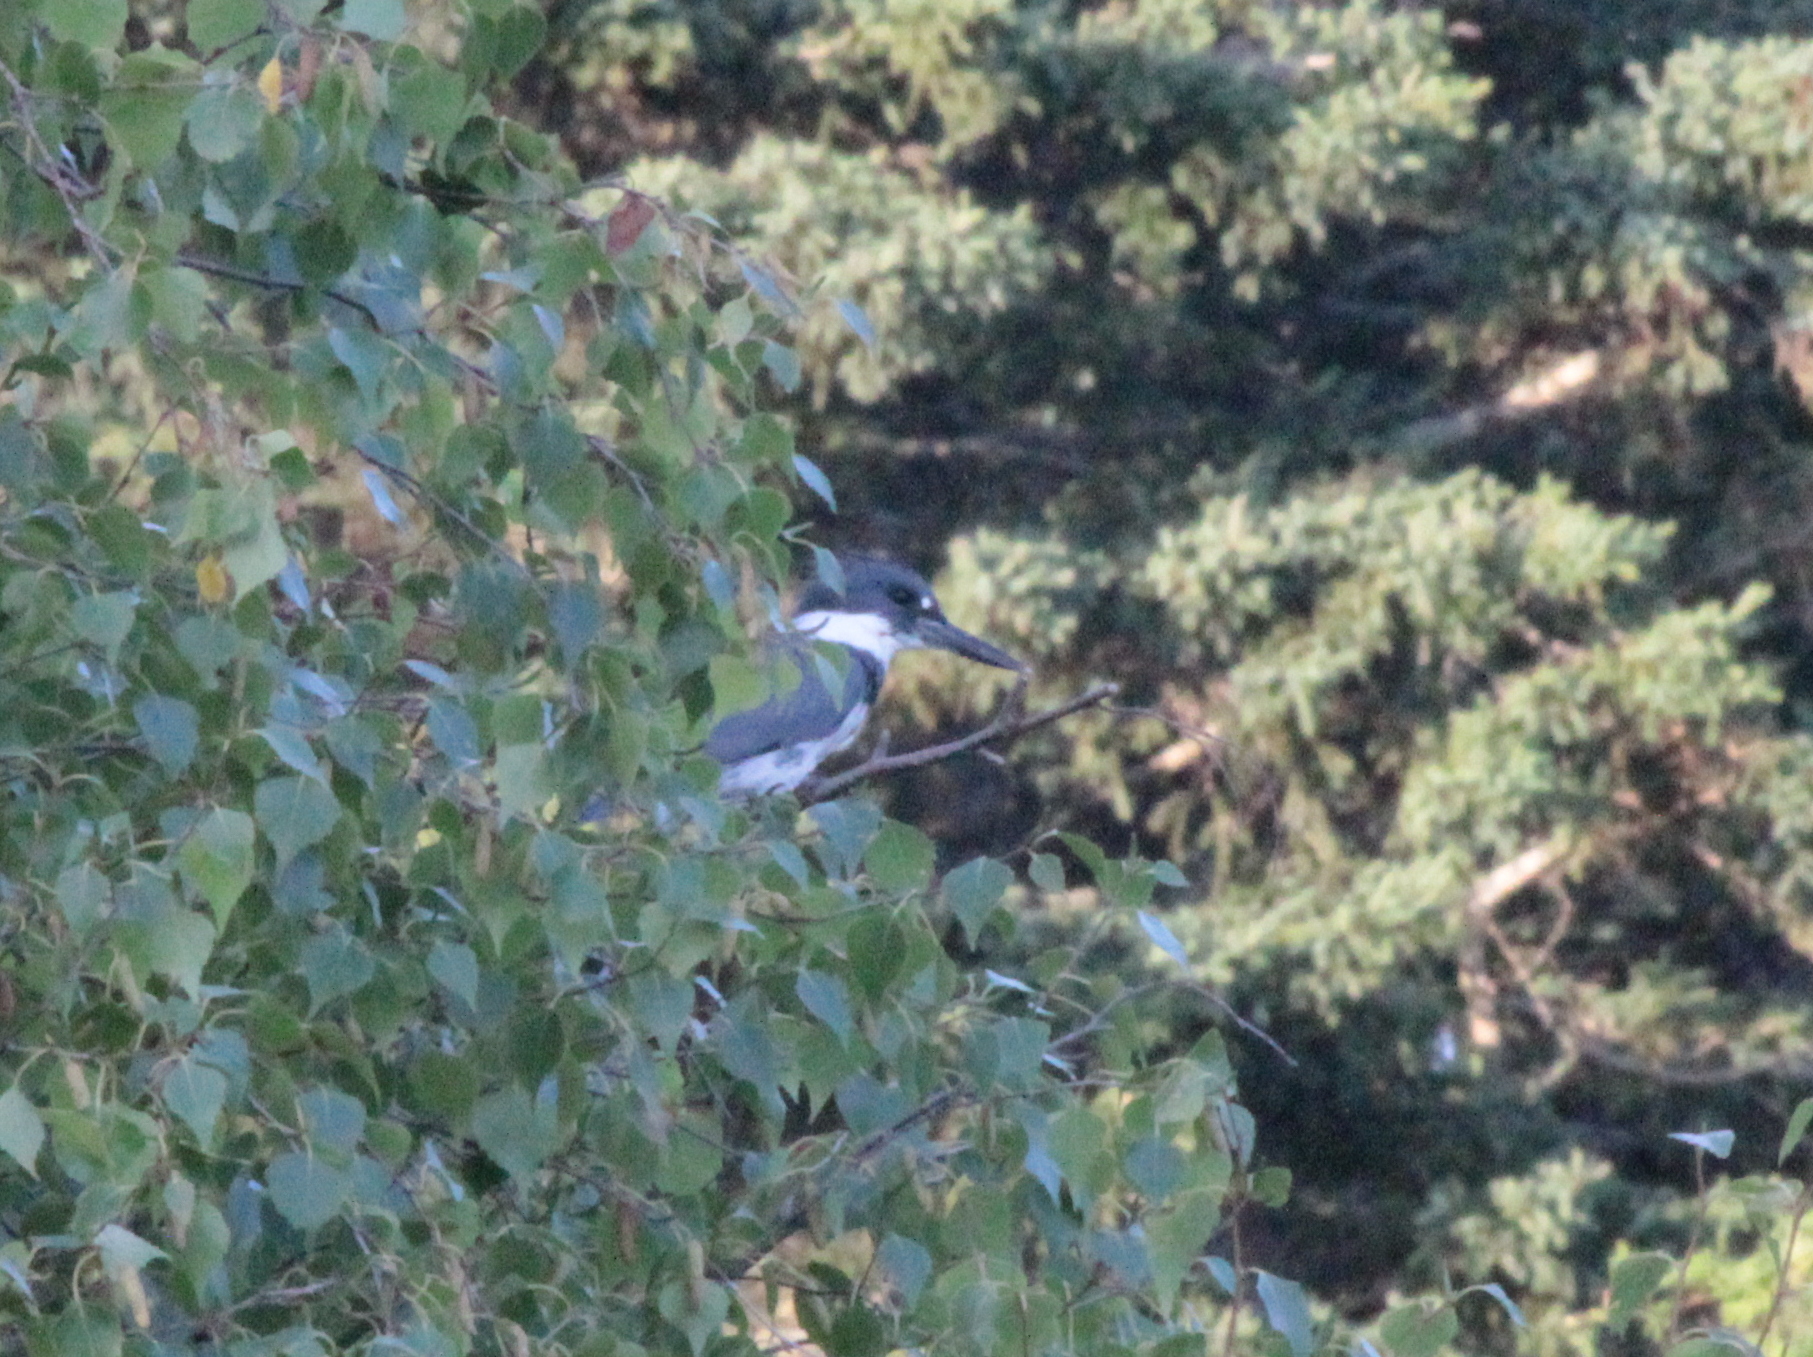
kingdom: Animalia
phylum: Chordata
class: Aves
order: Coraciiformes
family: Alcedinidae
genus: Megaceryle
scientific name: Megaceryle alcyon
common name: Belted kingfisher
